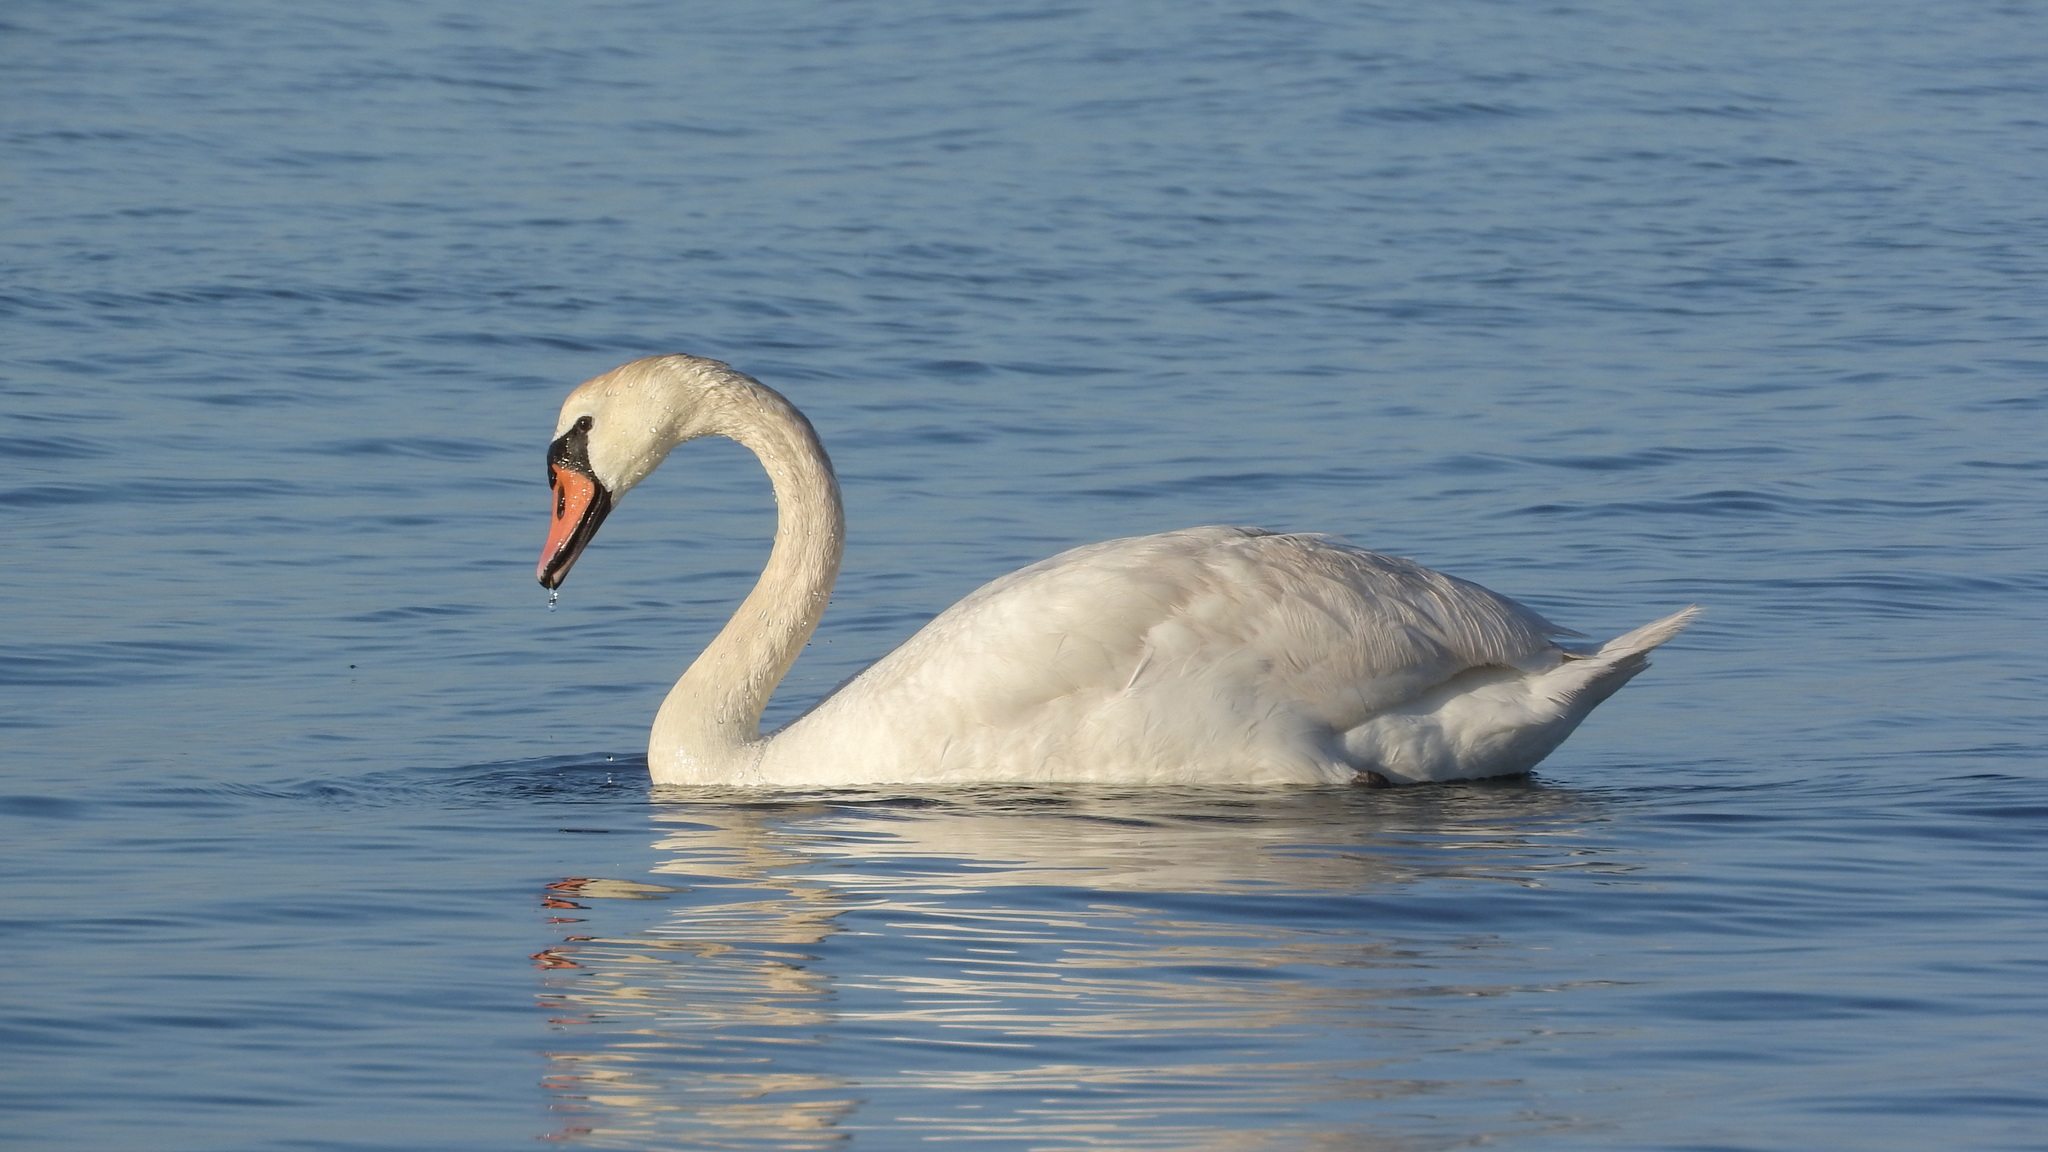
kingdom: Animalia
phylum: Chordata
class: Aves
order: Anseriformes
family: Anatidae
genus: Cygnus
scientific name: Cygnus olor
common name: Mute swan
